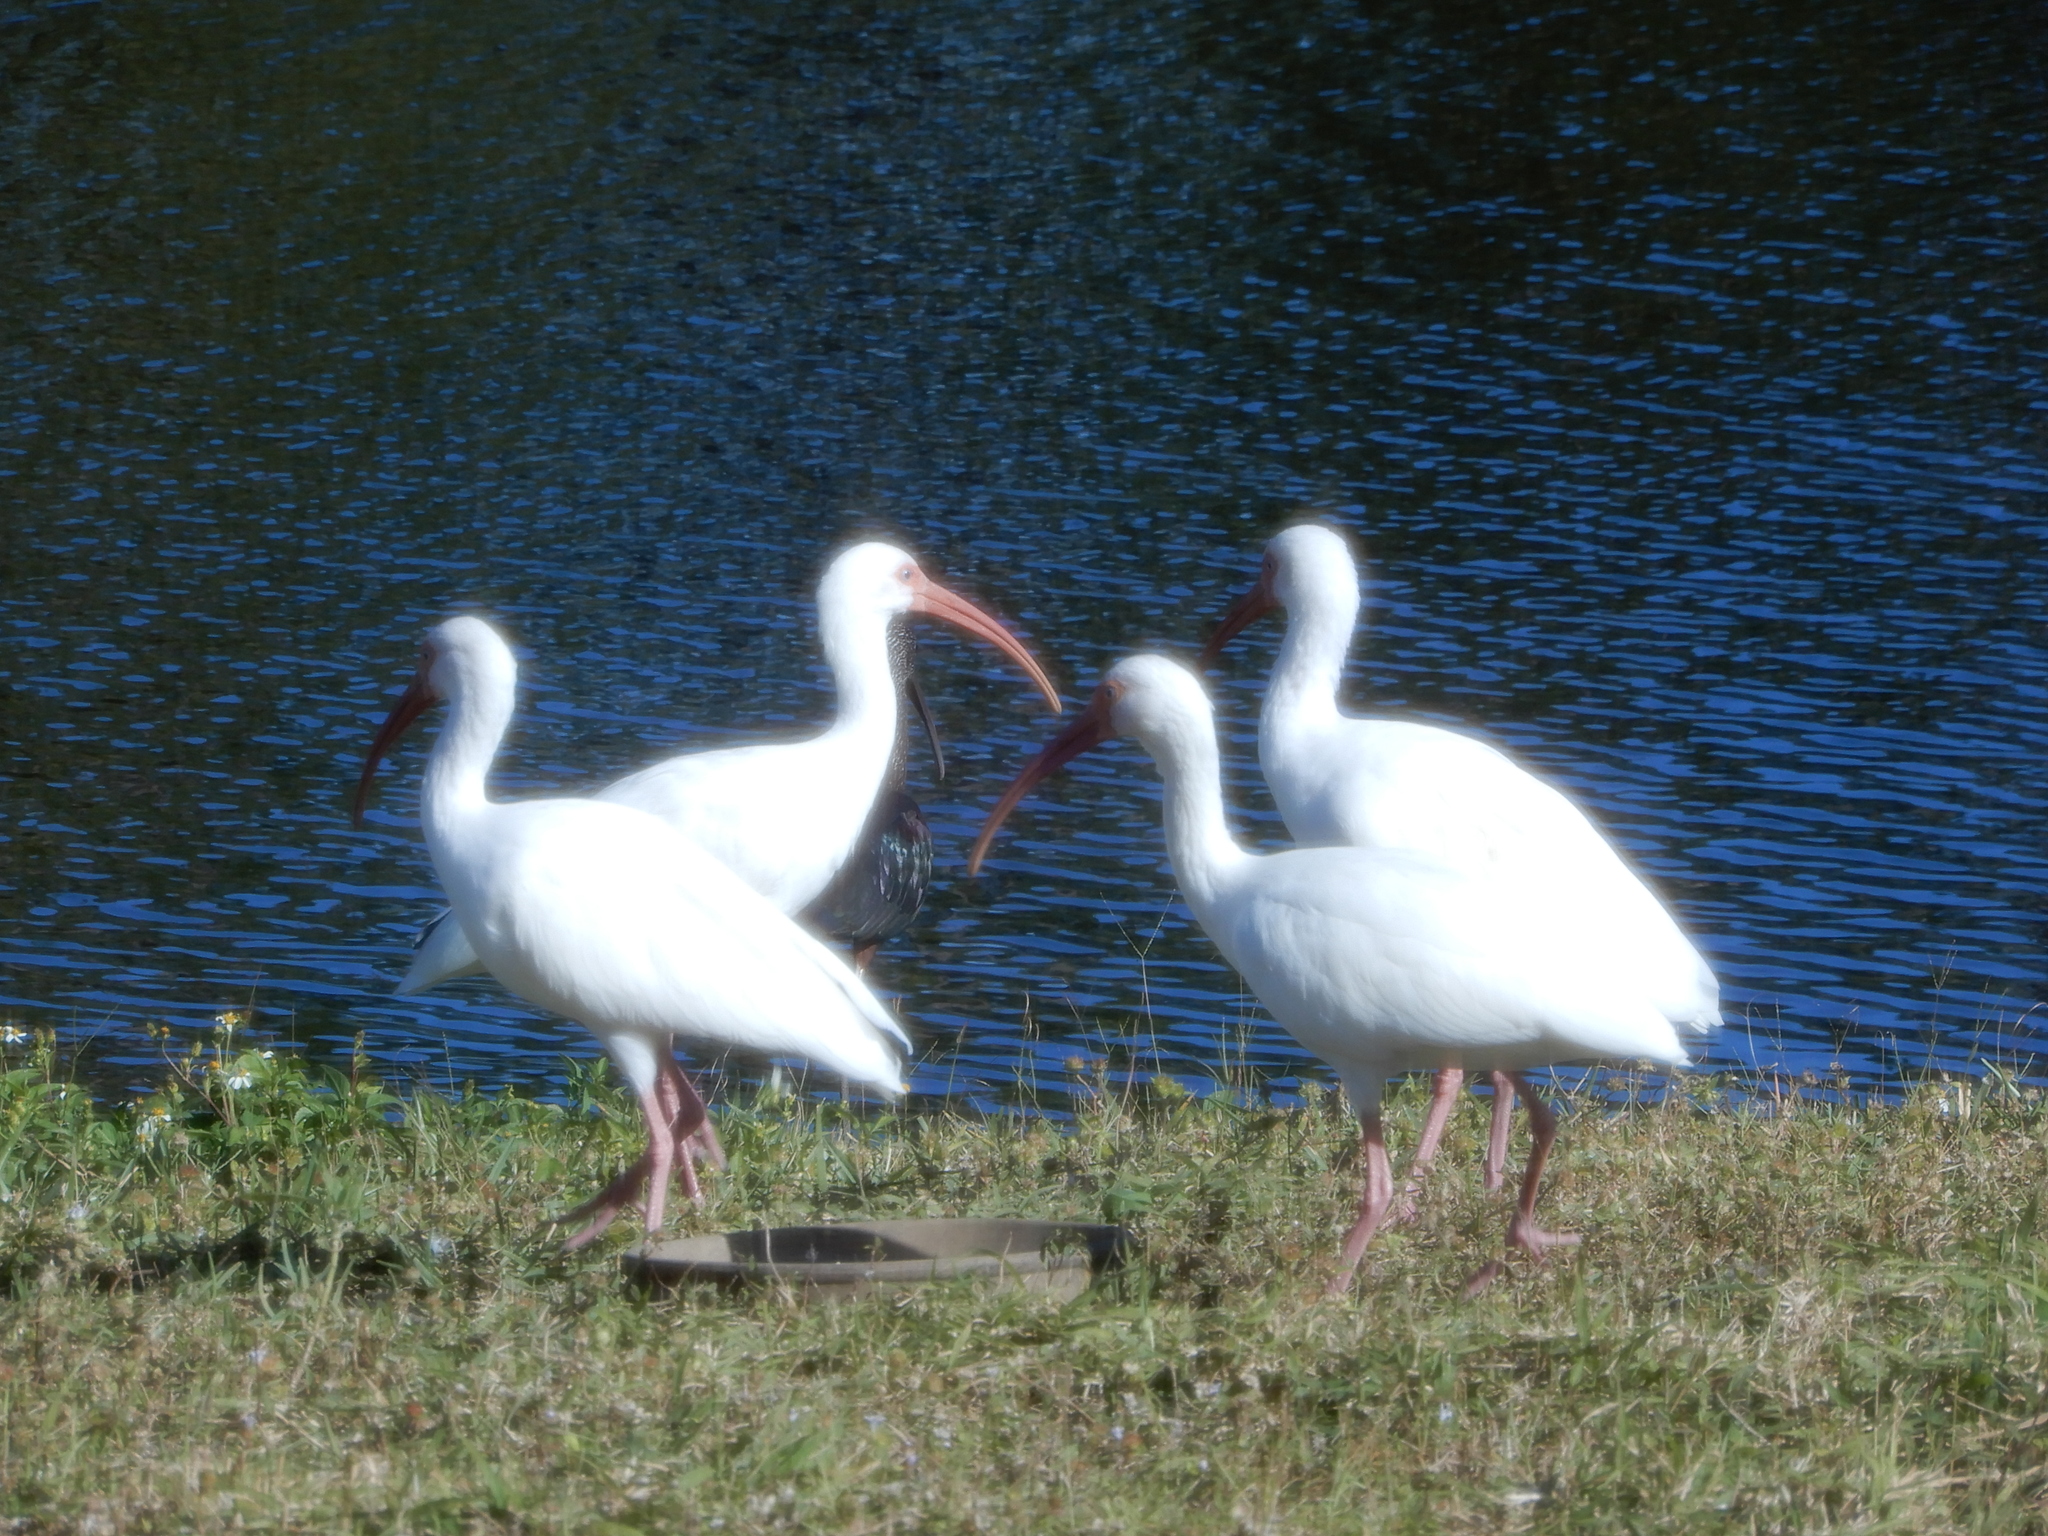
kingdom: Animalia
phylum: Chordata
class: Aves
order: Pelecaniformes
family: Threskiornithidae
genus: Eudocimus
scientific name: Eudocimus albus
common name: White ibis
